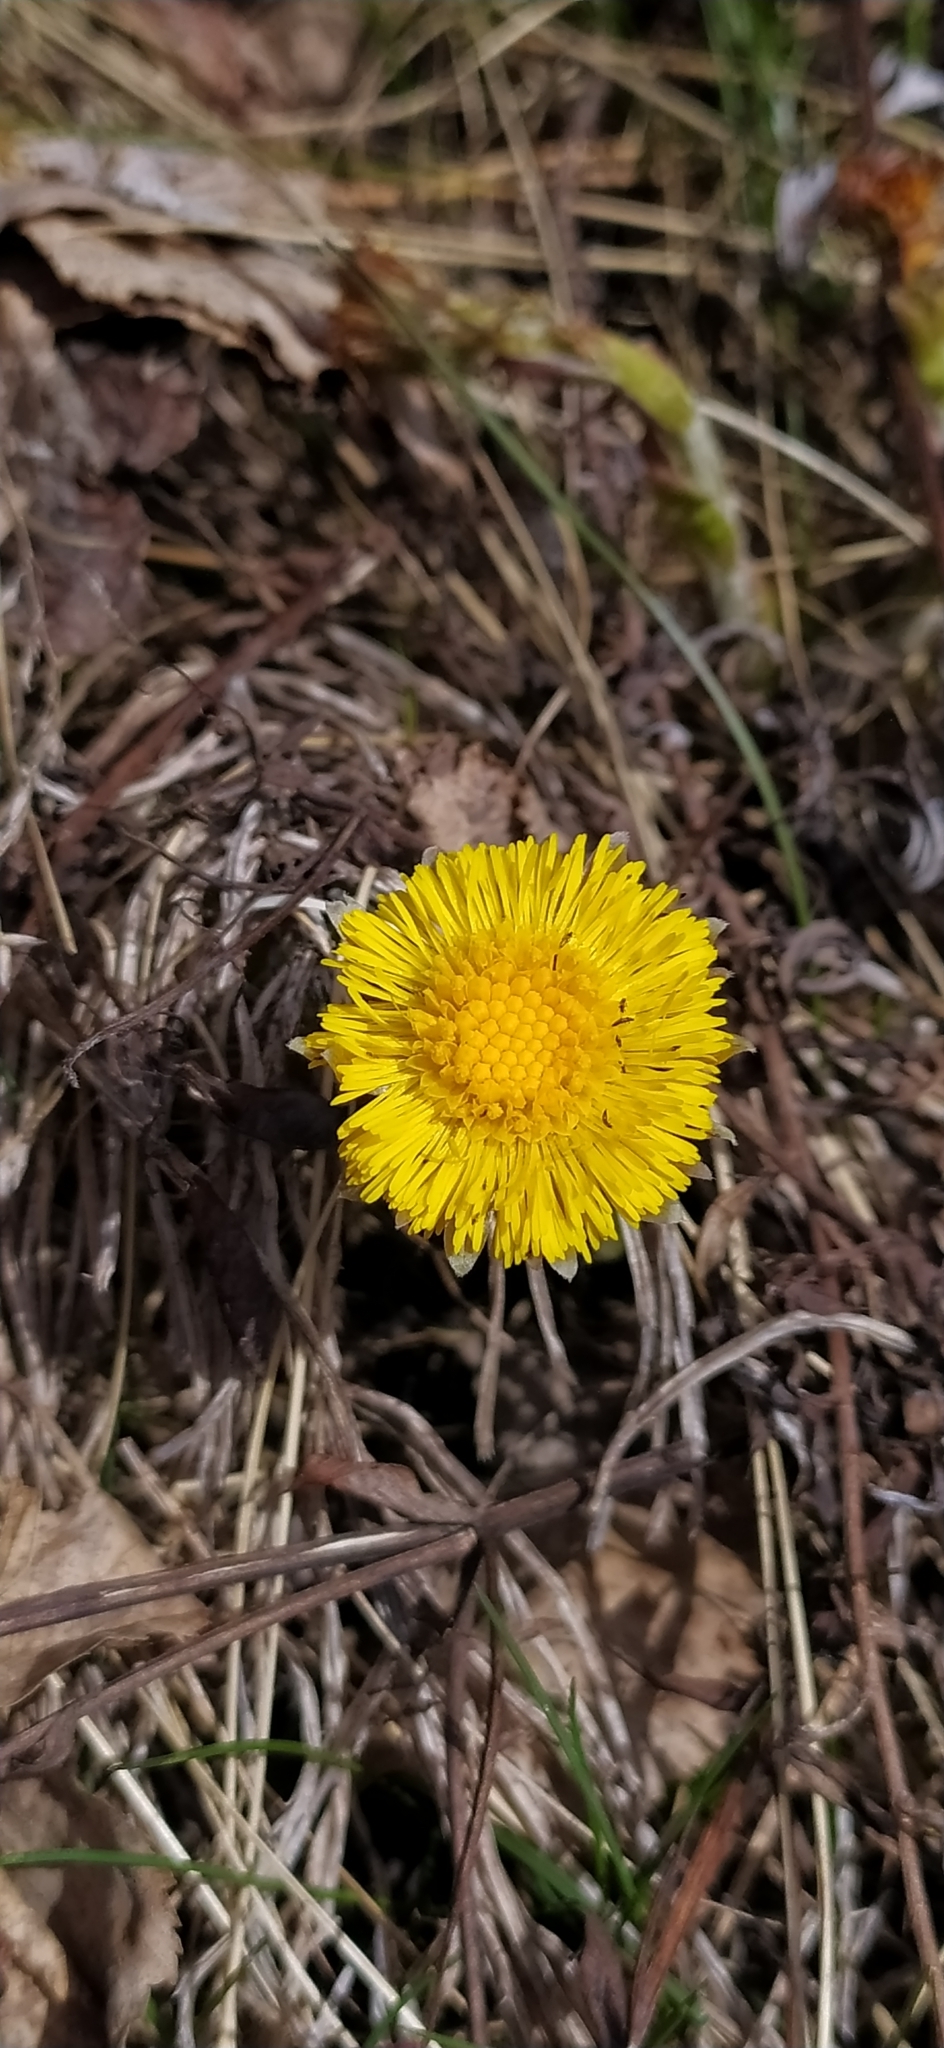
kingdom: Plantae
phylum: Tracheophyta
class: Magnoliopsida
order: Asterales
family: Asteraceae
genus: Tussilago
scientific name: Tussilago farfara
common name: Coltsfoot
